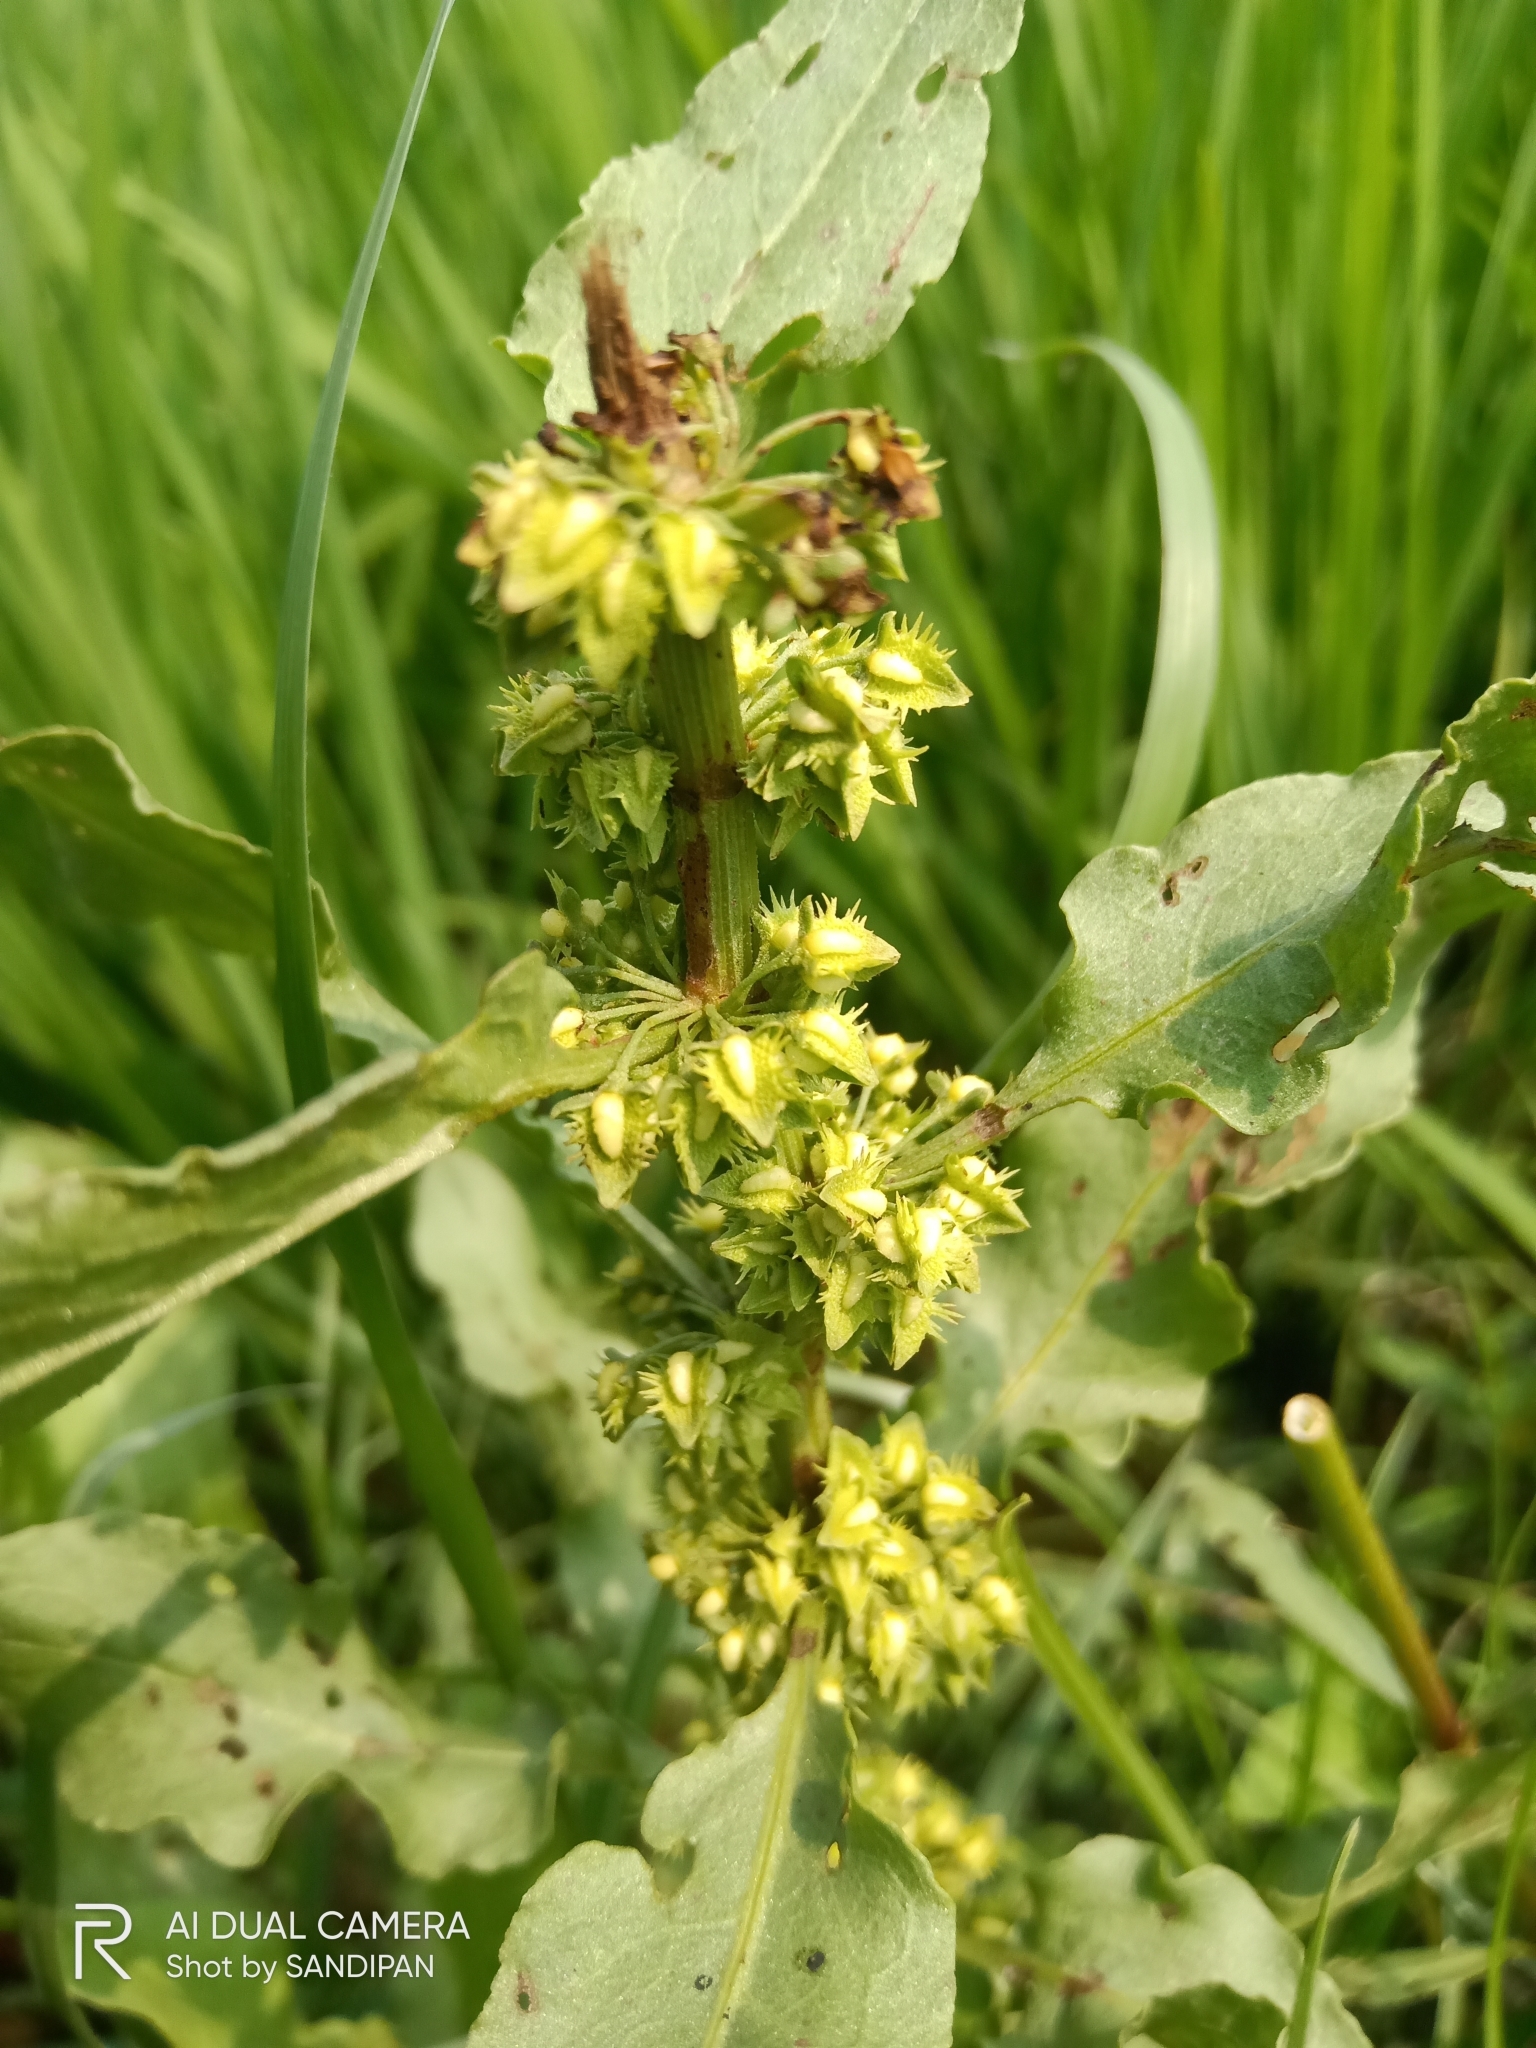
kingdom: Plantae
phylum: Tracheophyta
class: Magnoliopsida
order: Caryophyllales
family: Polygonaceae
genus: Rumex
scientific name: Rumex dentatus
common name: Toothed dock
